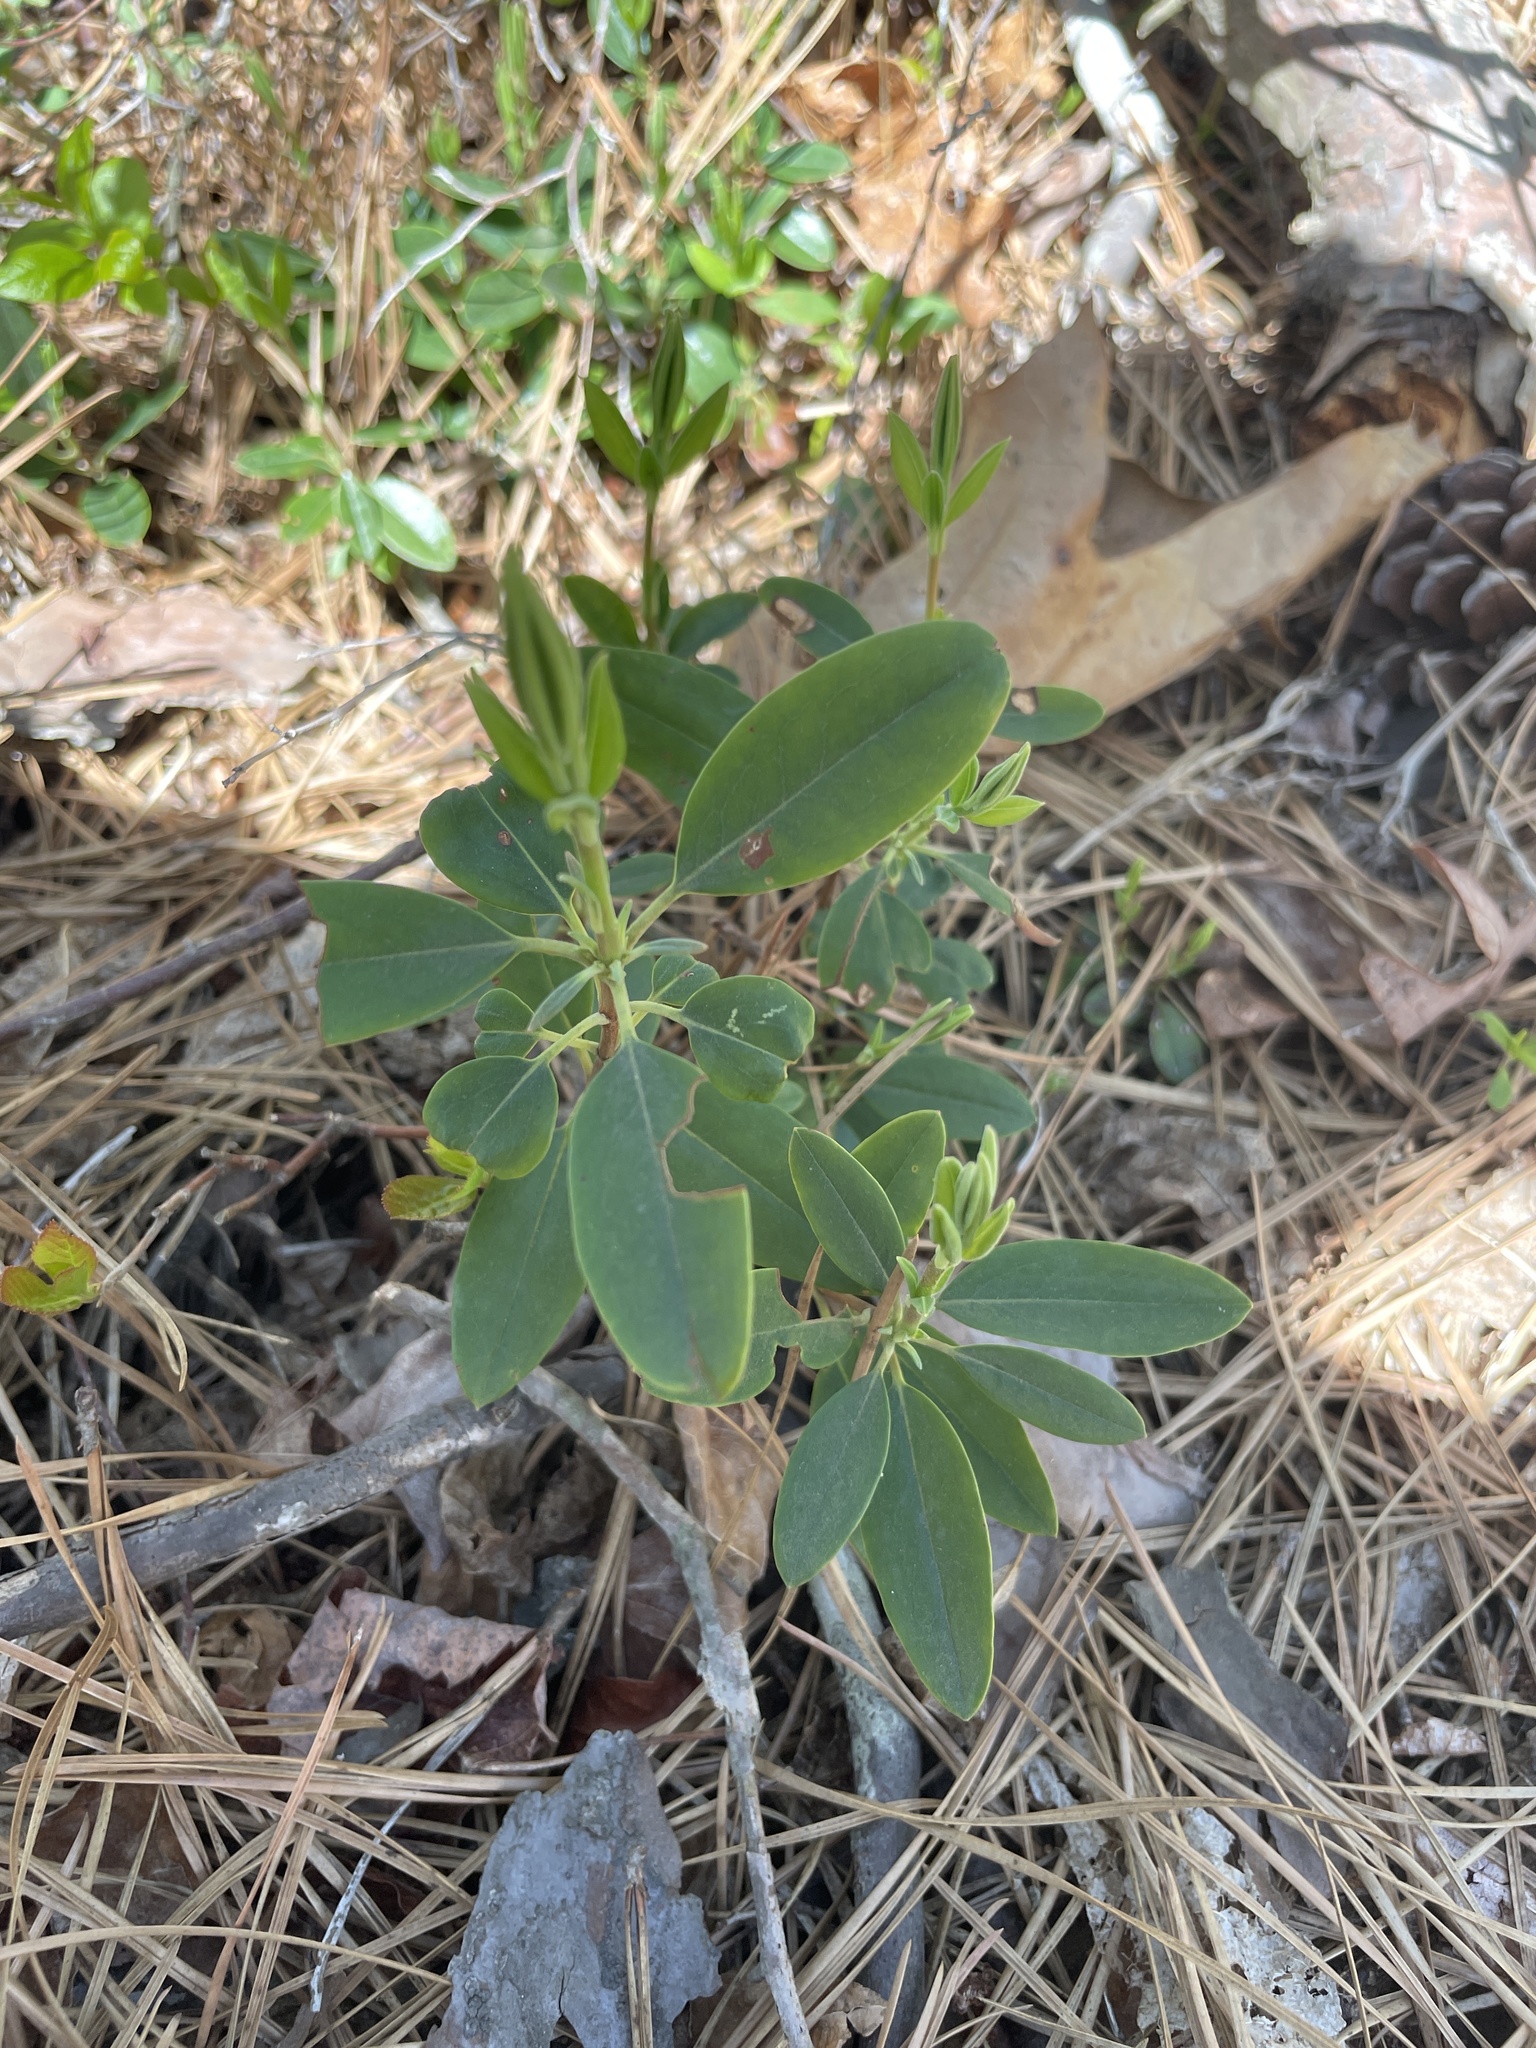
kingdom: Plantae
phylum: Tracheophyta
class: Magnoliopsida
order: Ericales
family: Ericaceae
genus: Kalmia
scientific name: Kalmia angustifolia
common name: Sheep-laurel
